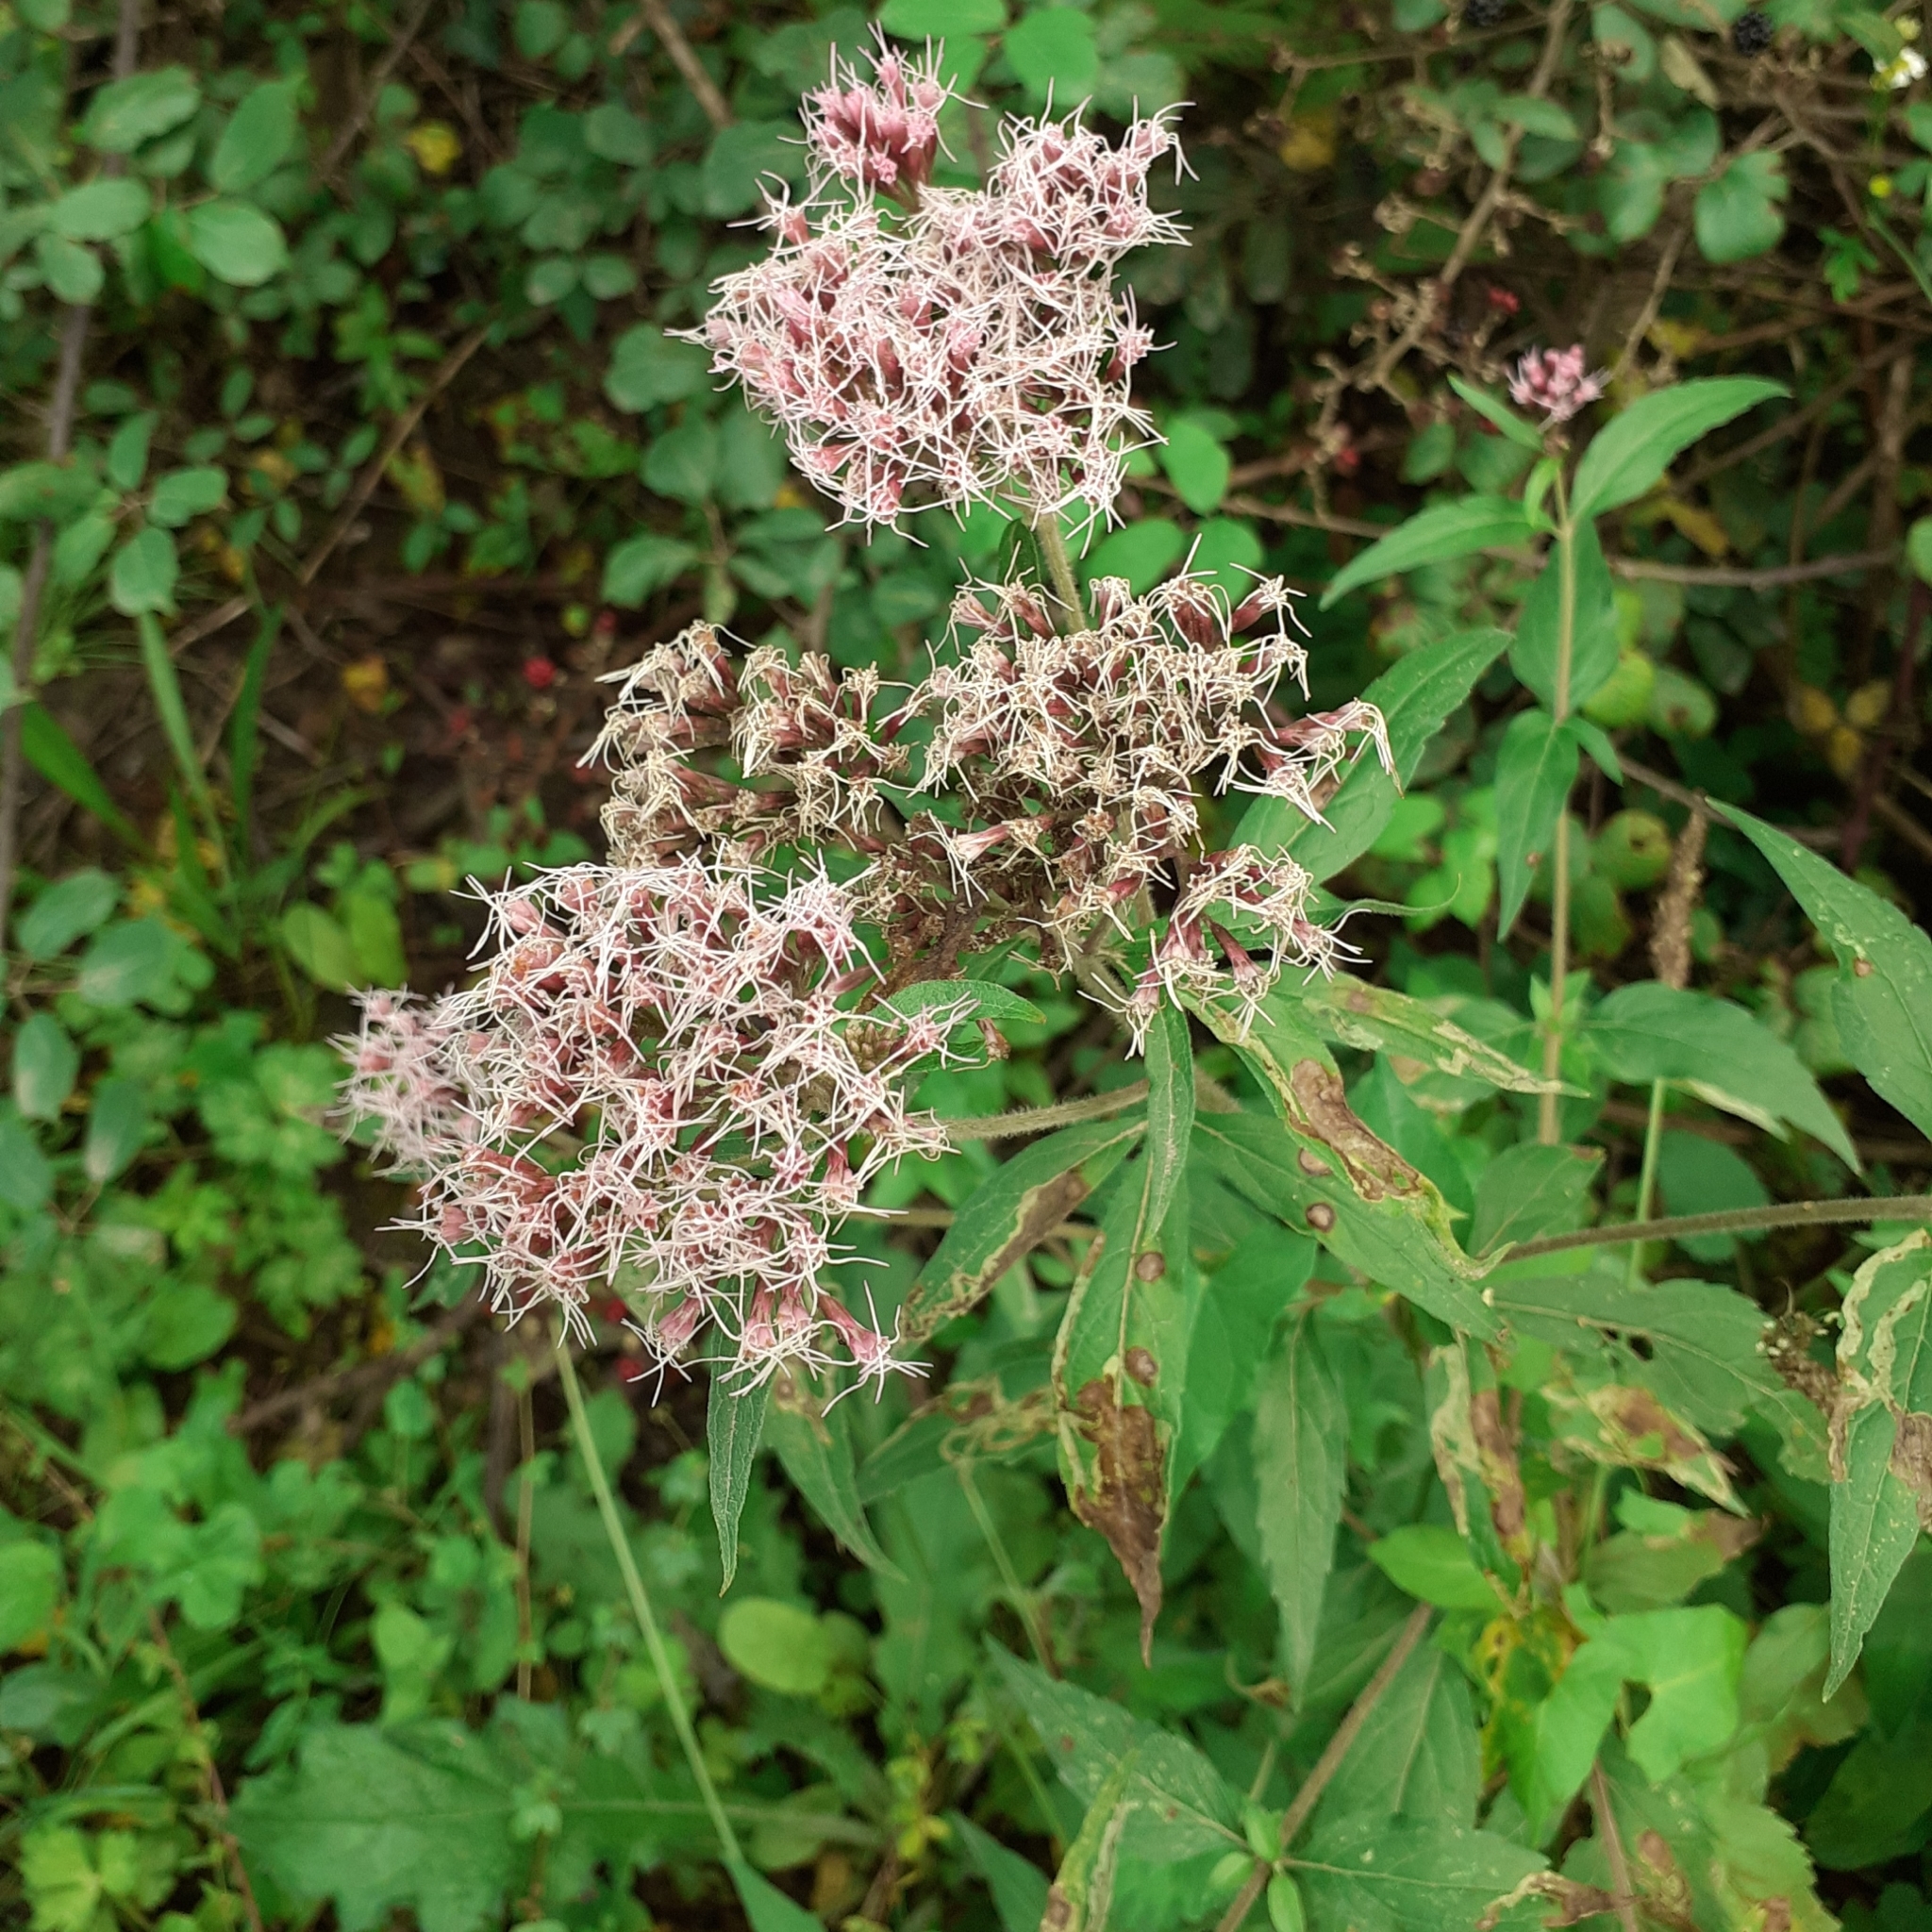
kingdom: Plantae
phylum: Tracheophyta
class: Magnoliopsida
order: Asterales
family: Asteraceae
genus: Eupatorium
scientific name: Eupatorium cannabinum
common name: Hemp-agrimony
